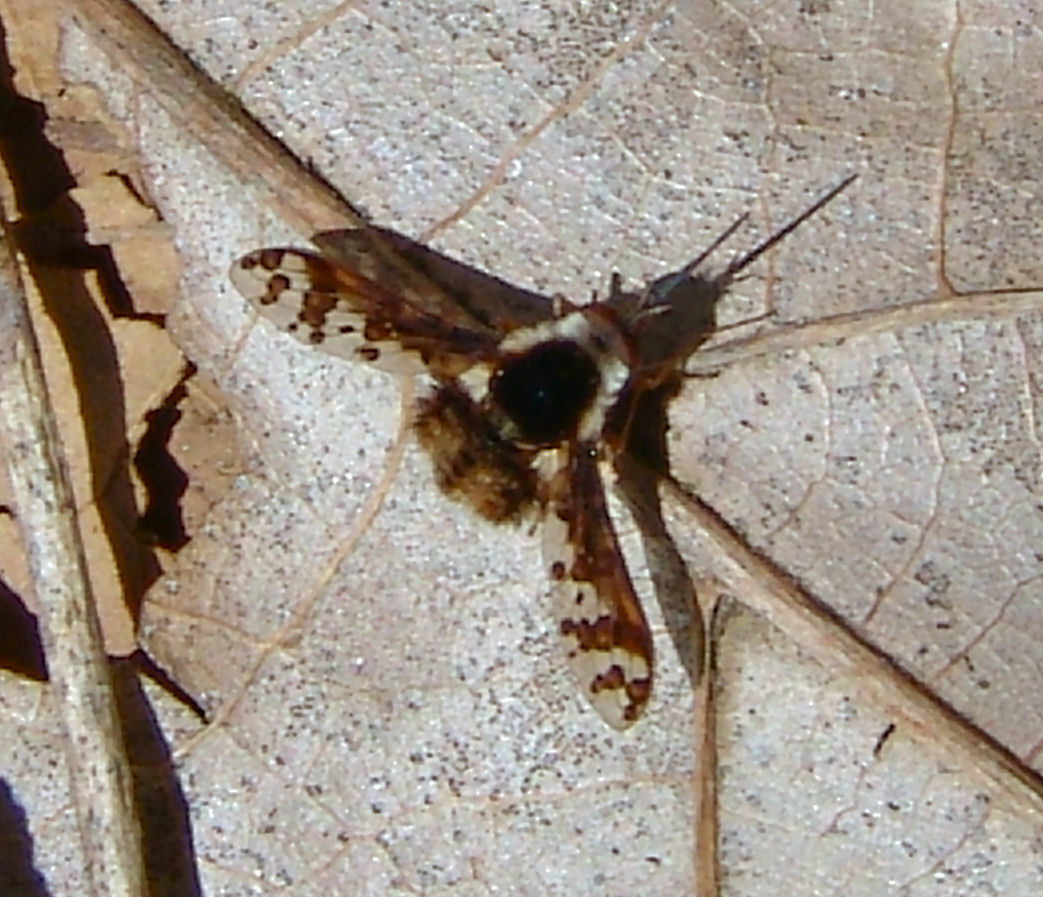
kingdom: Animalia
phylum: Arthropoda
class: Insecta
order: Diptera
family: Bombyliidae
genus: Bombylius
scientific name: Bombylius pulchellus
